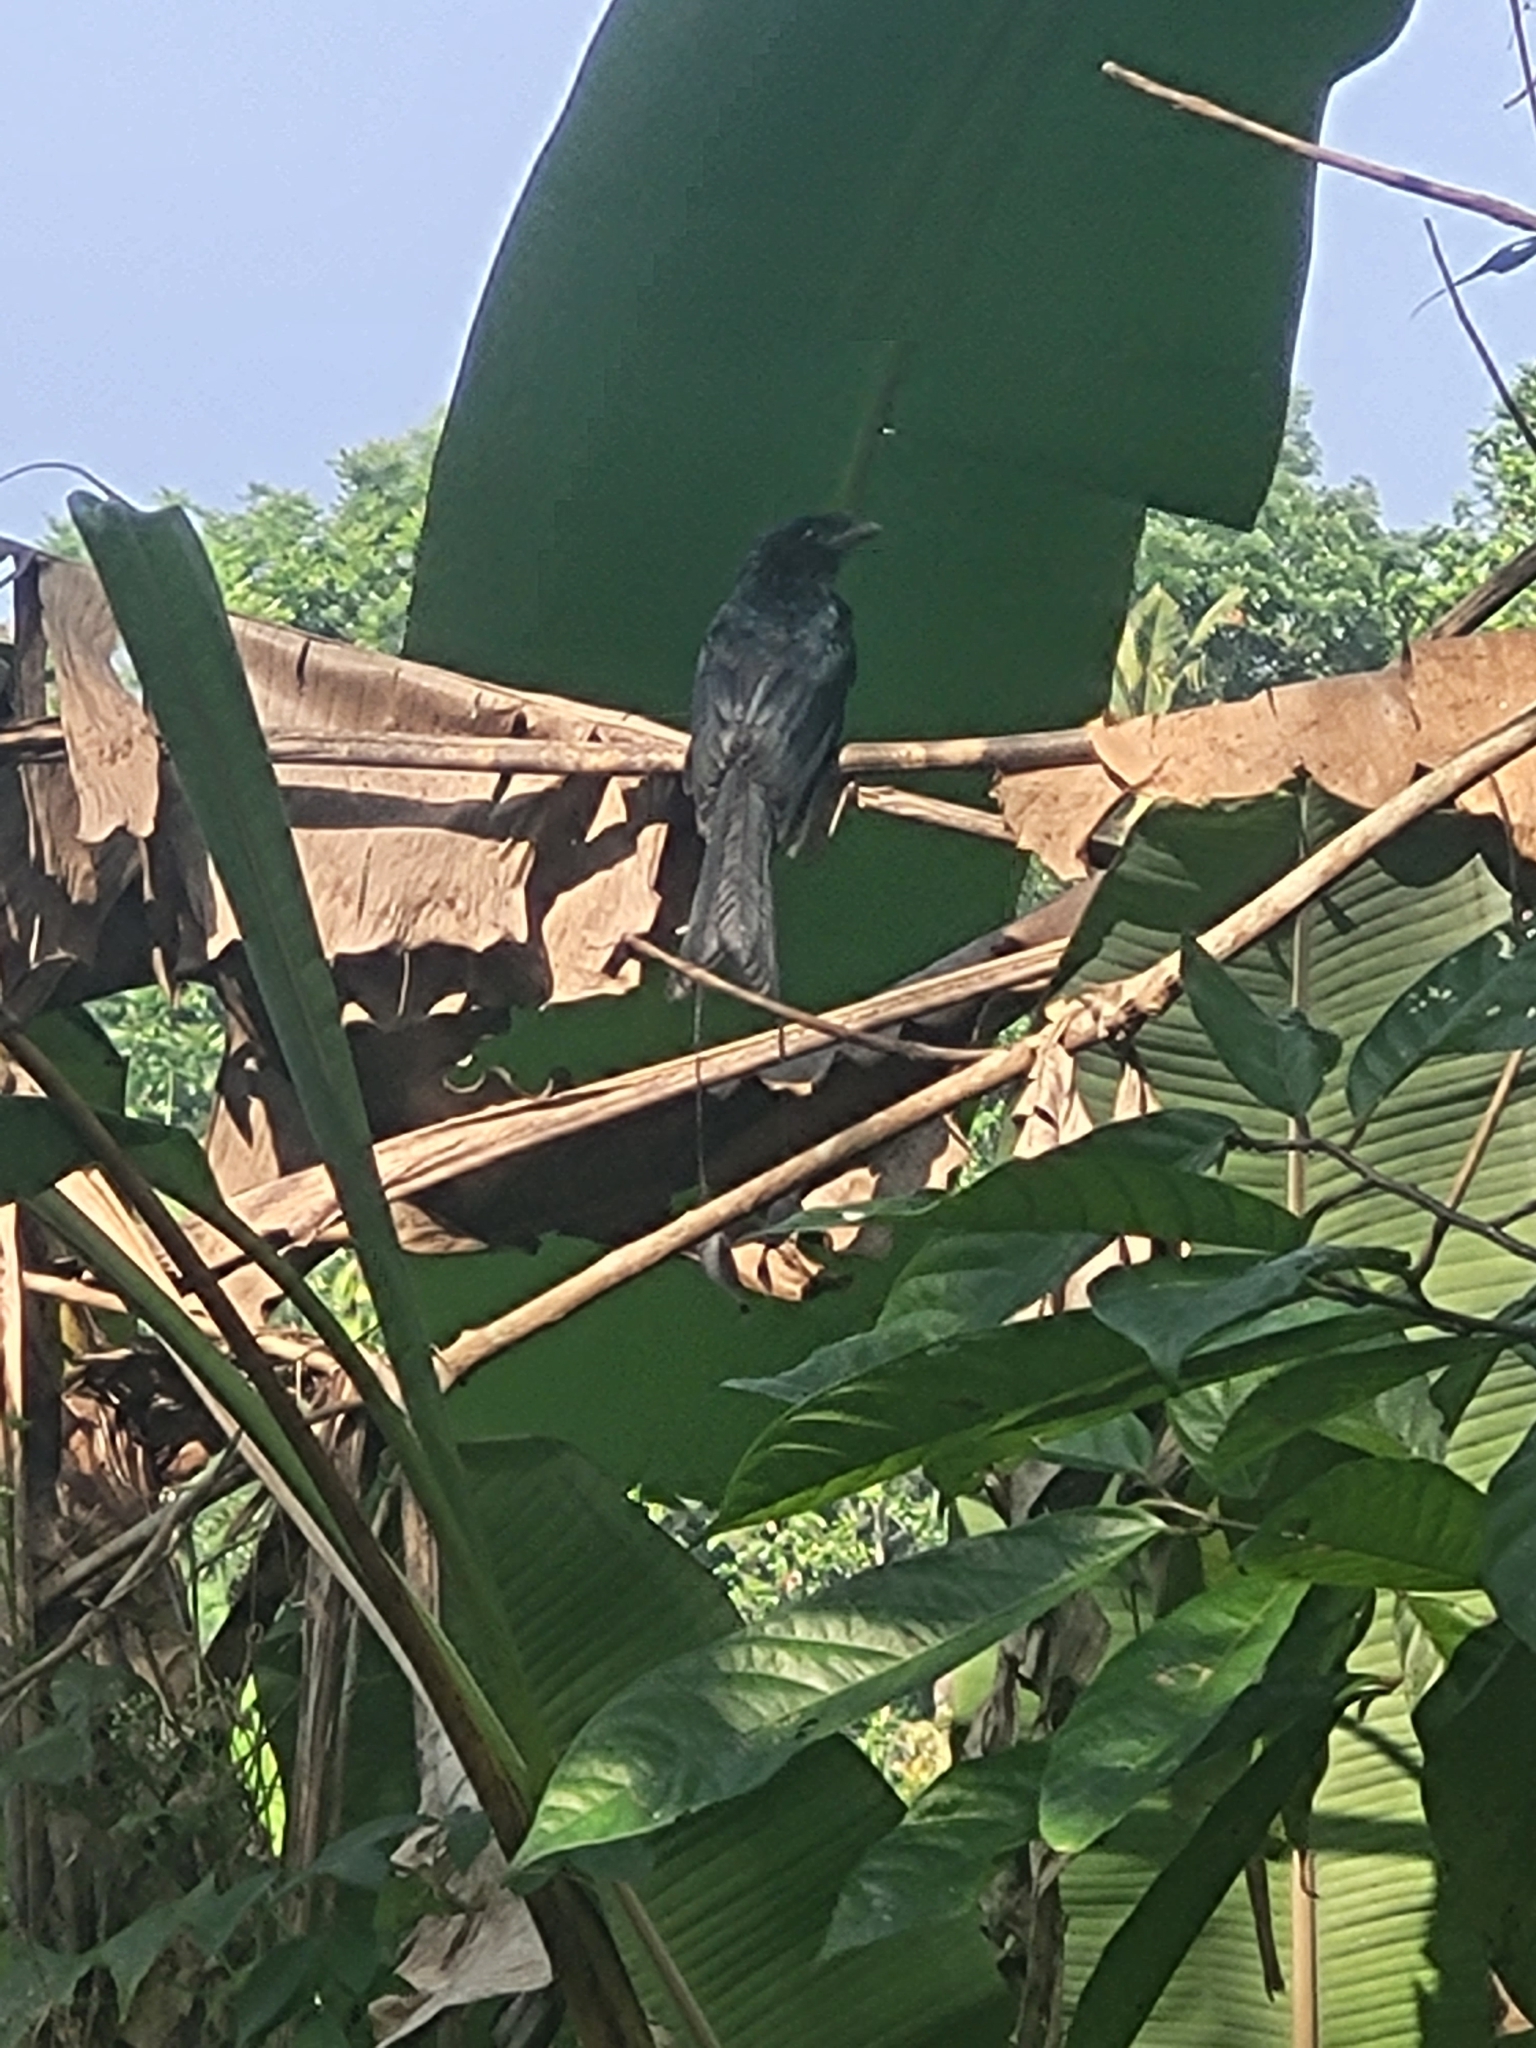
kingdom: Animalia
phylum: Chordata
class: Aves
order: Passeriformes
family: Dicruridae
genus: Dicrurus
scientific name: Dicrurus paradiseus
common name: Greater racket-tailed drongo
